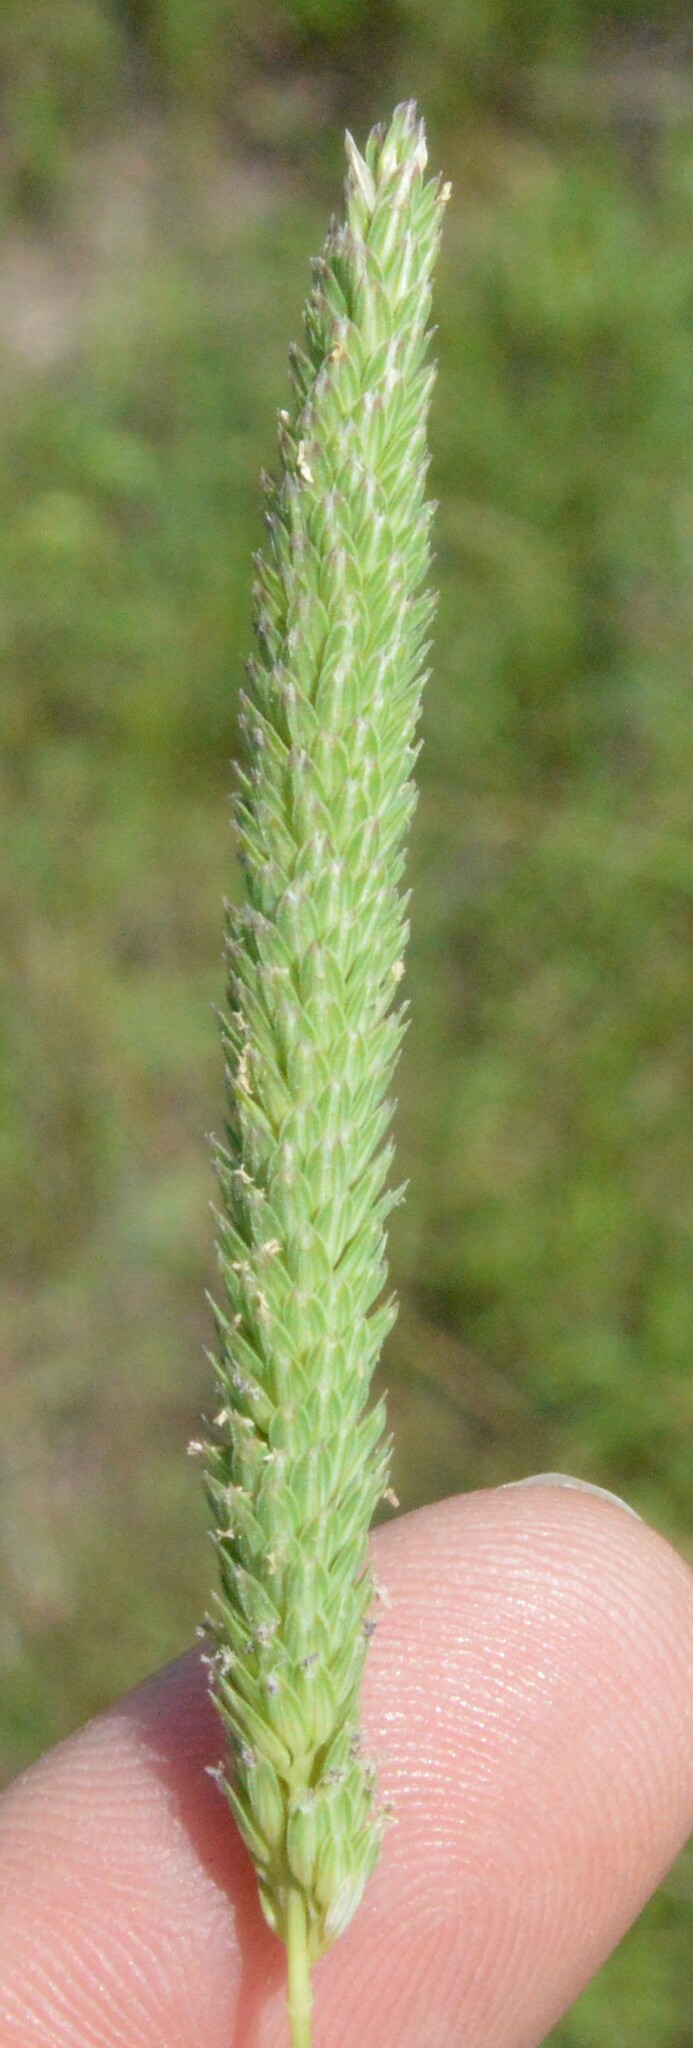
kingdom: Plantae
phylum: Tracheophyta
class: Liliopsida
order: Poales
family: Poaceae
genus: Phalaris
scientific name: Phalaris angusta
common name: Narrow canary grass
